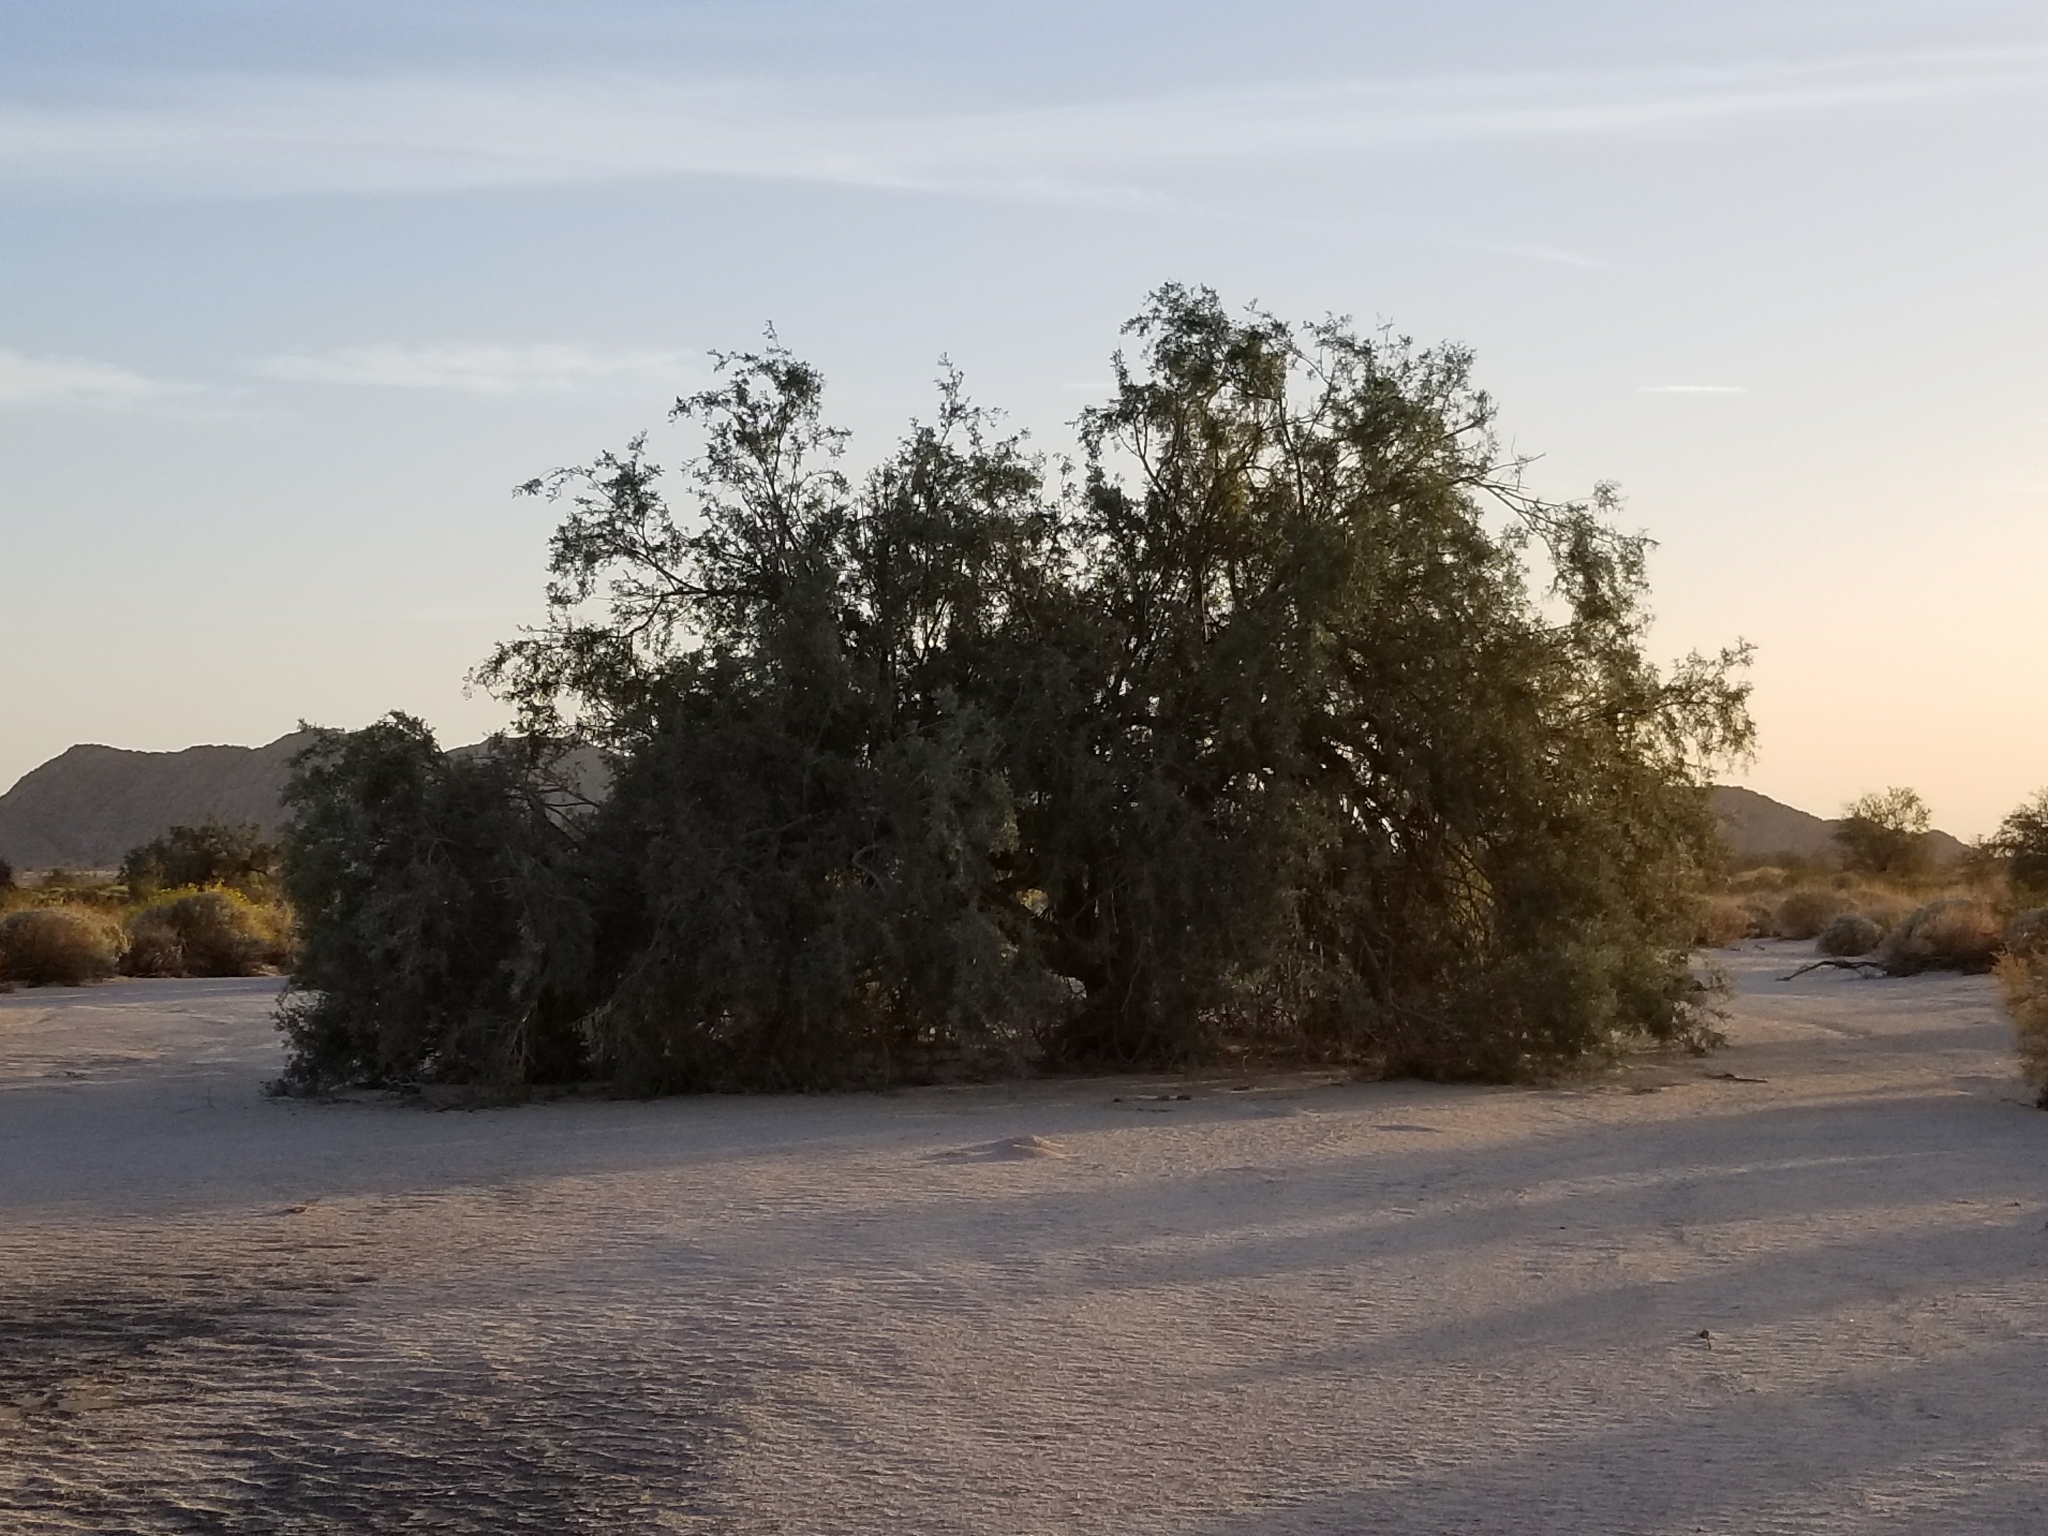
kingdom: Plantae
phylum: Tracheophyta
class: Magnoliopsida
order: Fabales
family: Fabaceae
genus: Olneya
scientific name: Olneya tesota
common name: Desert ironwood
